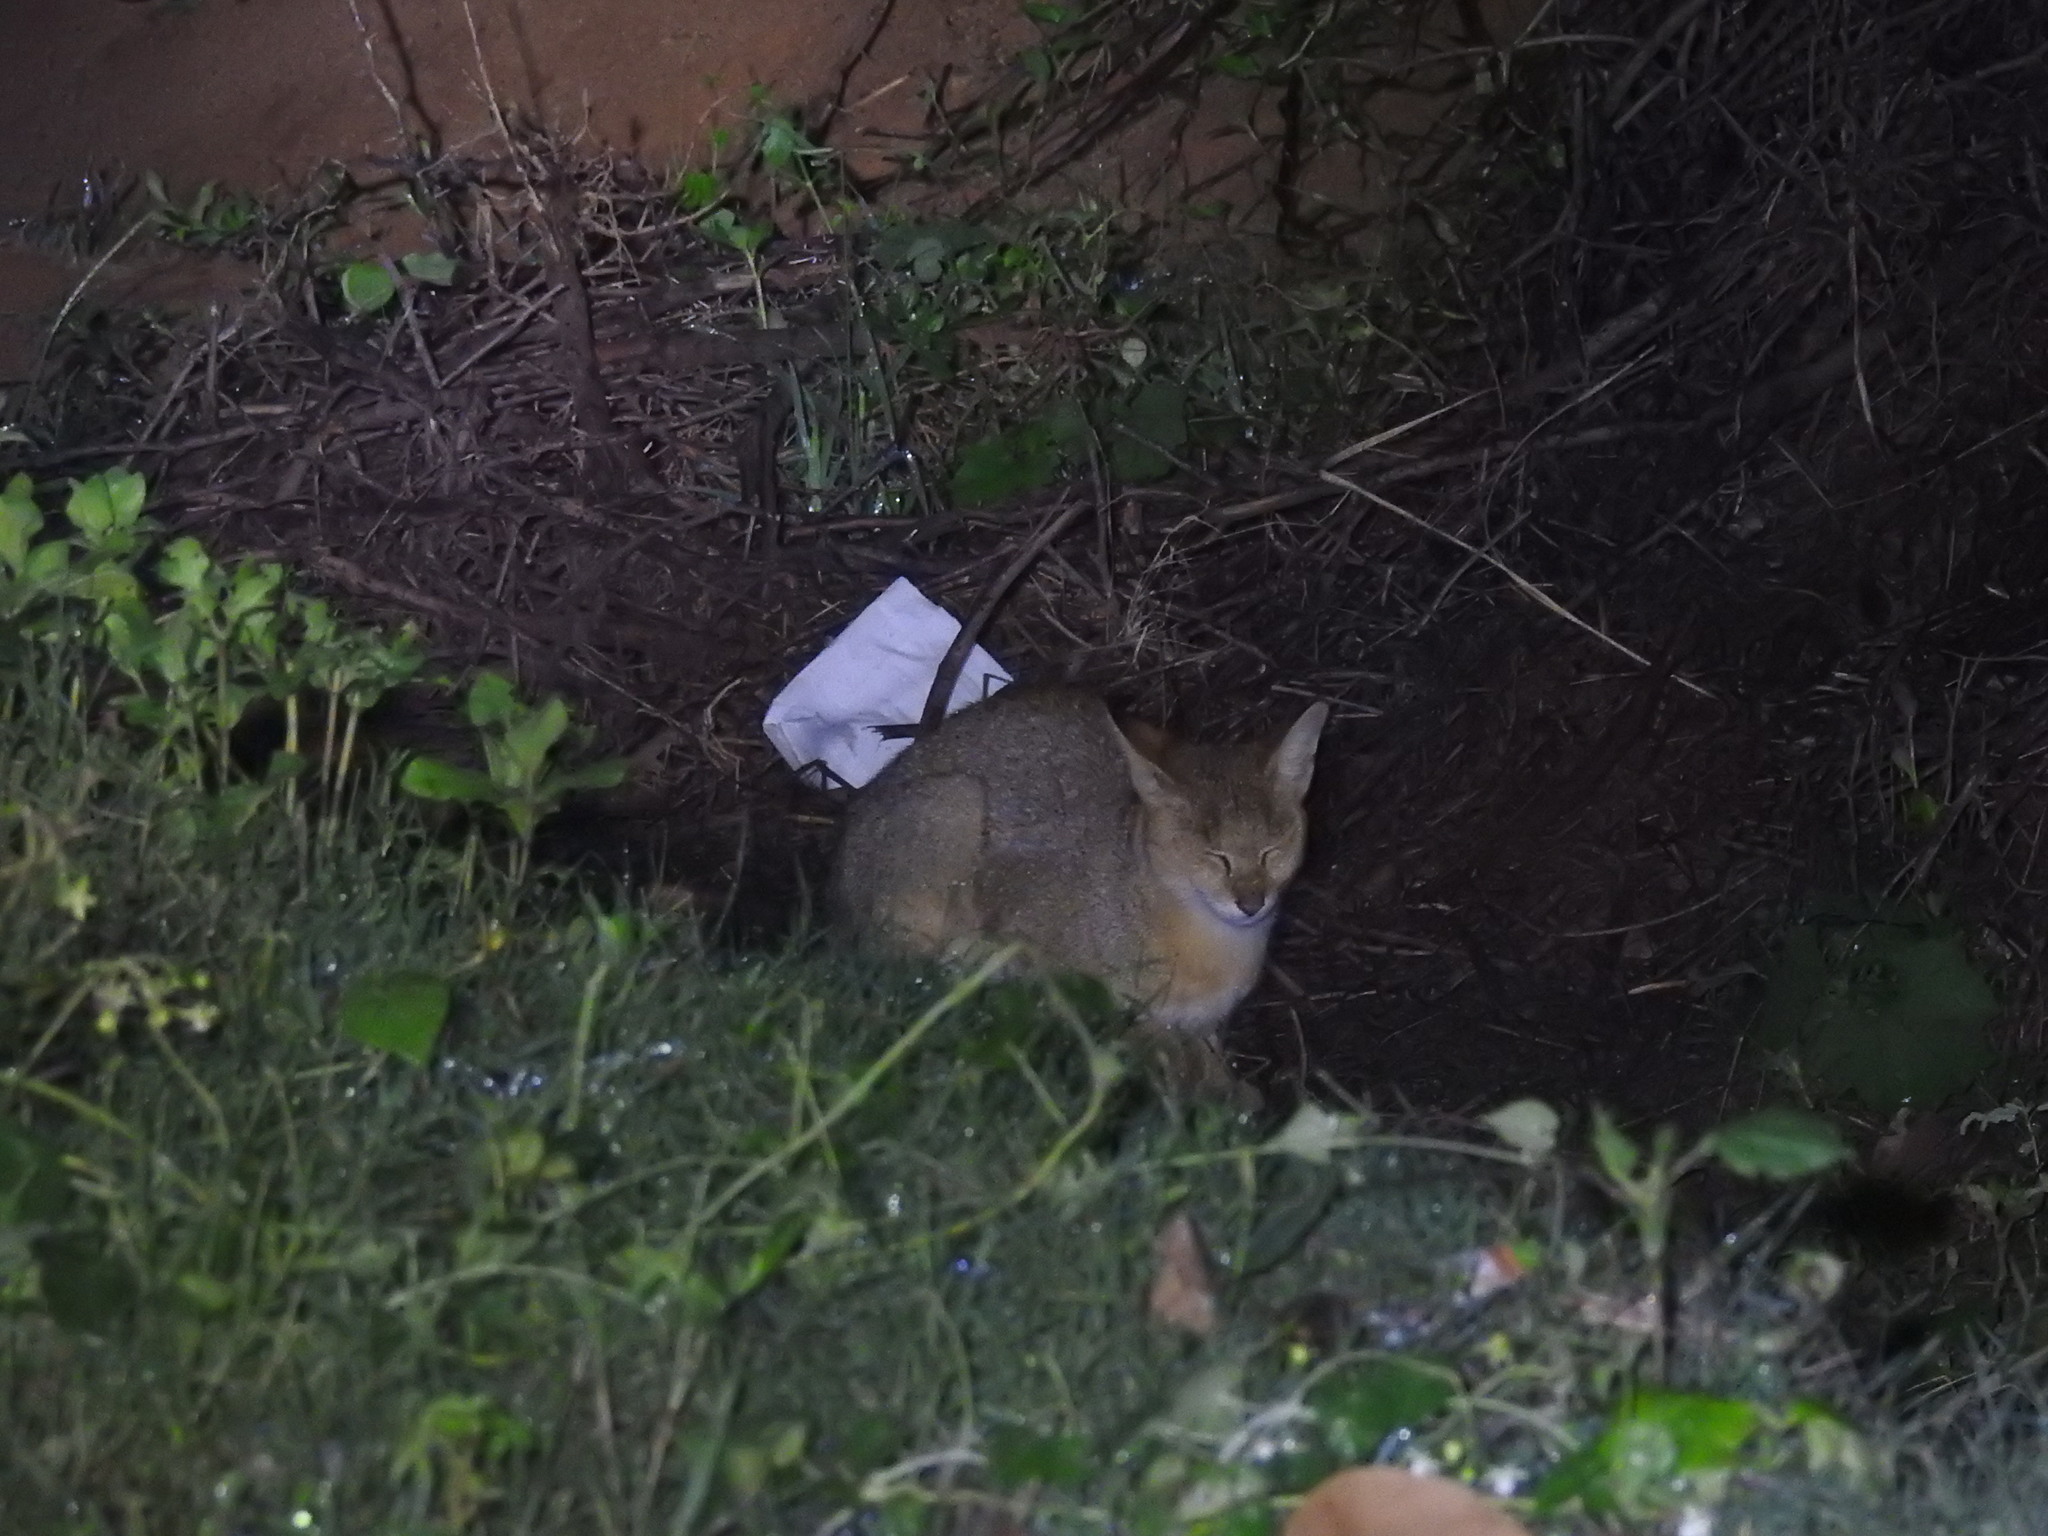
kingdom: Animalia
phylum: Chordata
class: Mammalia
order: Carnivora
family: Felidae
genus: Felis
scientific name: Felis chaus
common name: Jungle cat
